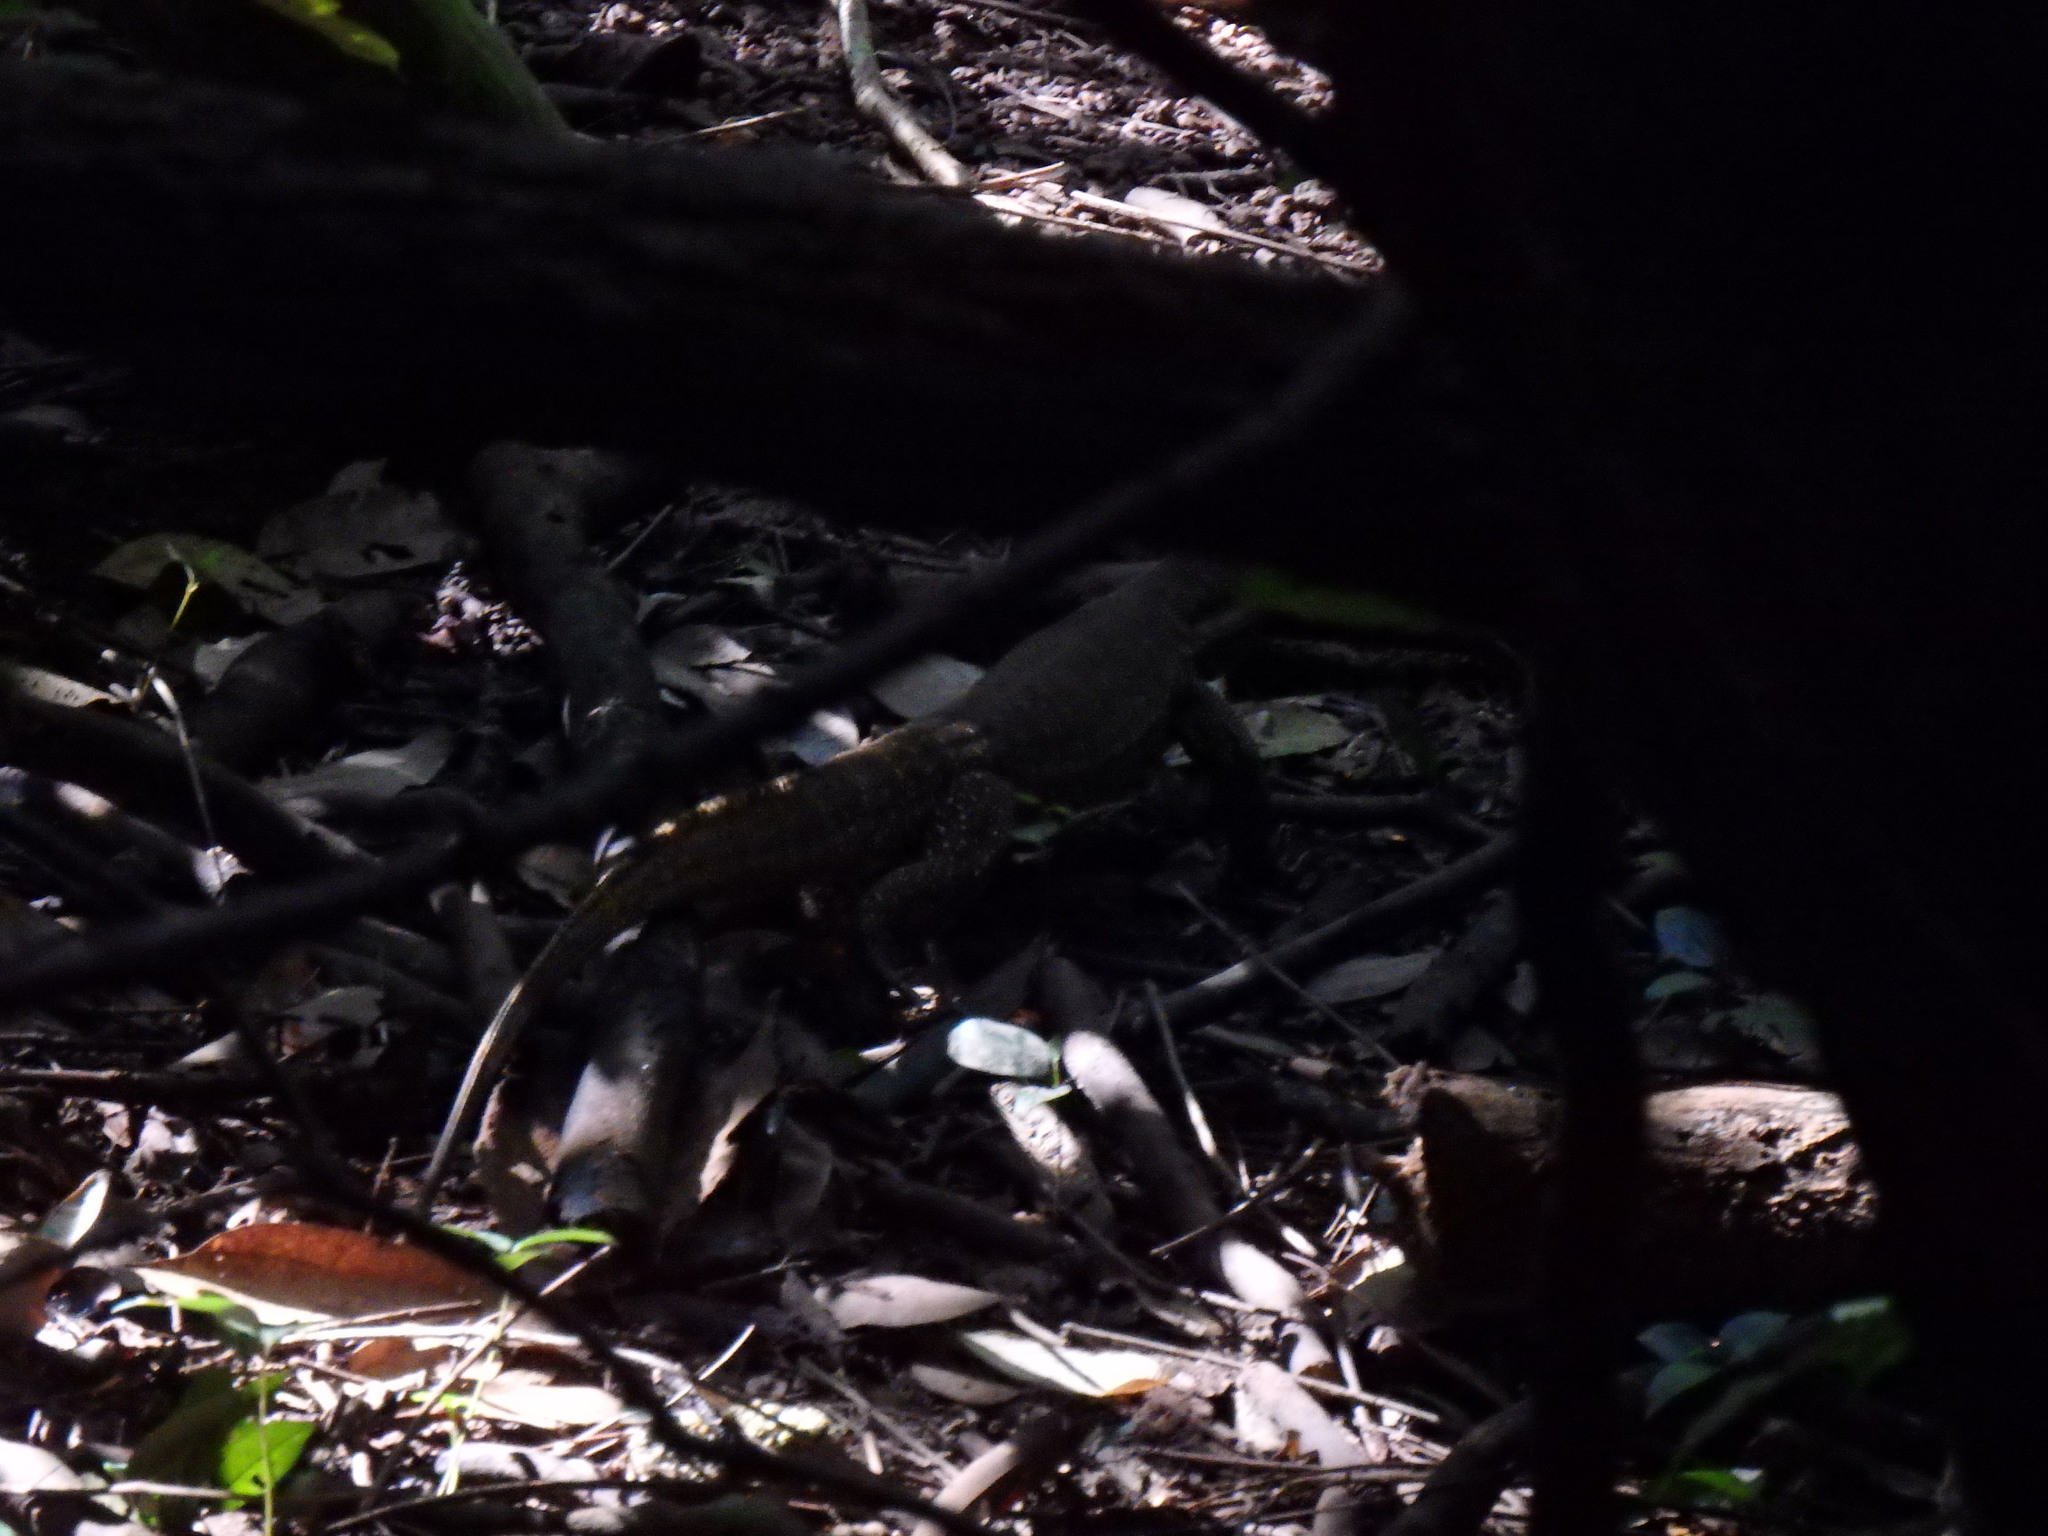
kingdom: Animalia
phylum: Chordata
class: Squamata
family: Varanidae
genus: Varanus
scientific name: Varanus nebulosus
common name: Clouded monitor
